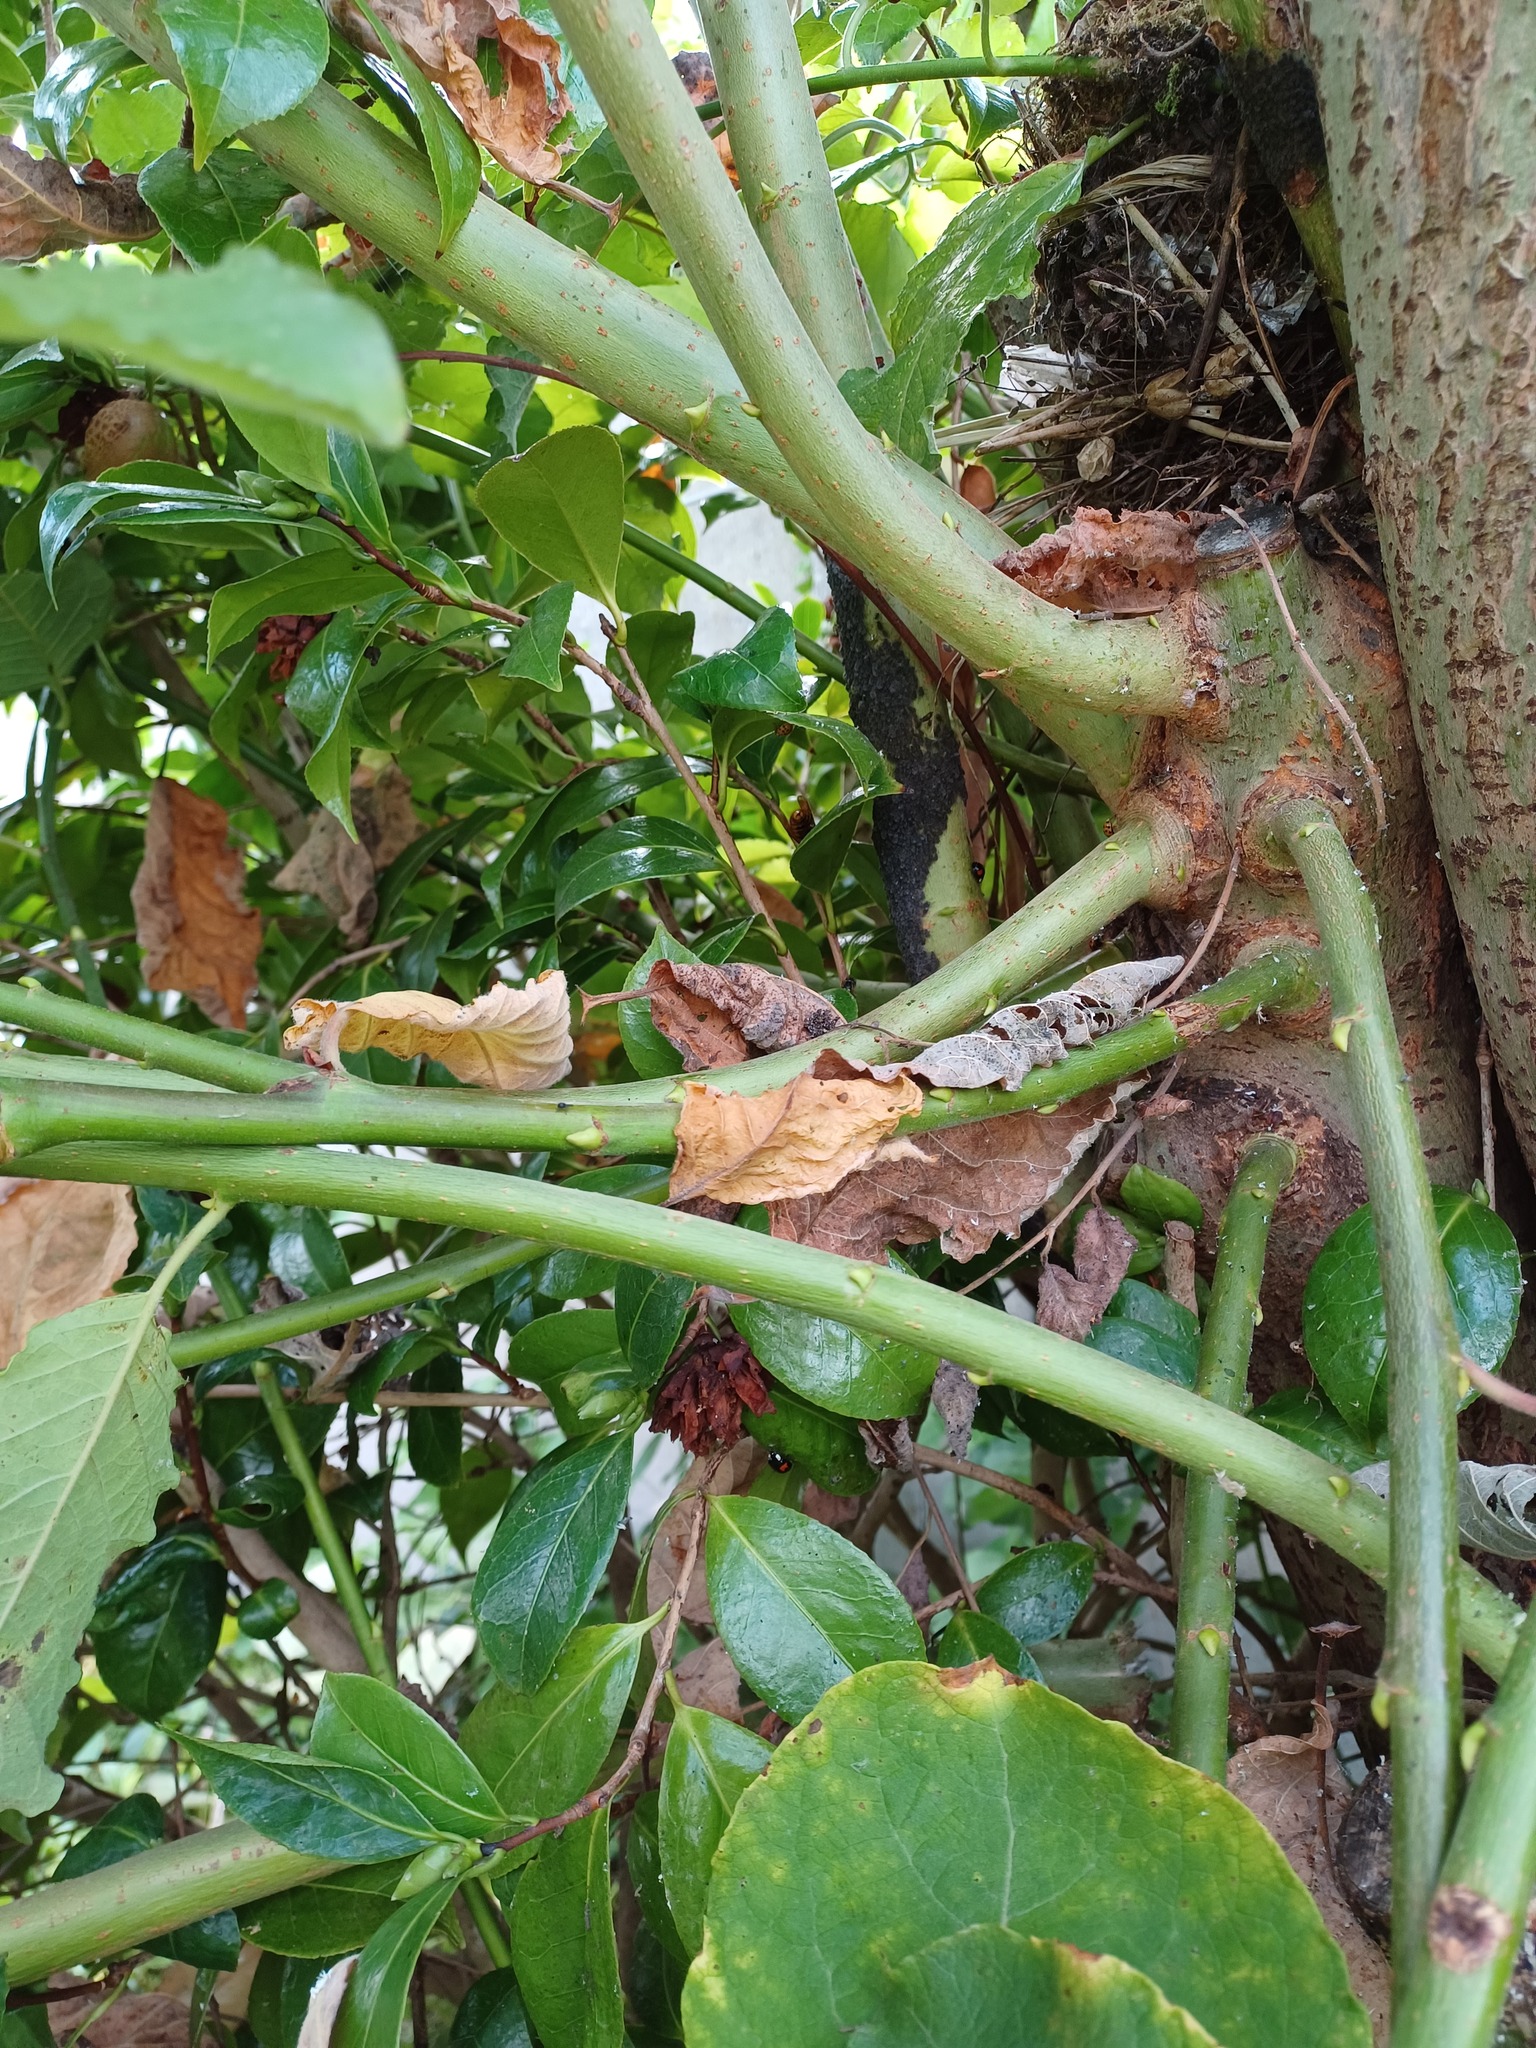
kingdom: Animalia
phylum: Arthropoda
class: Insecta
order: Hymenoptera
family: Vespidae
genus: Vespa
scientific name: Vespa crabro
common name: Hornet
